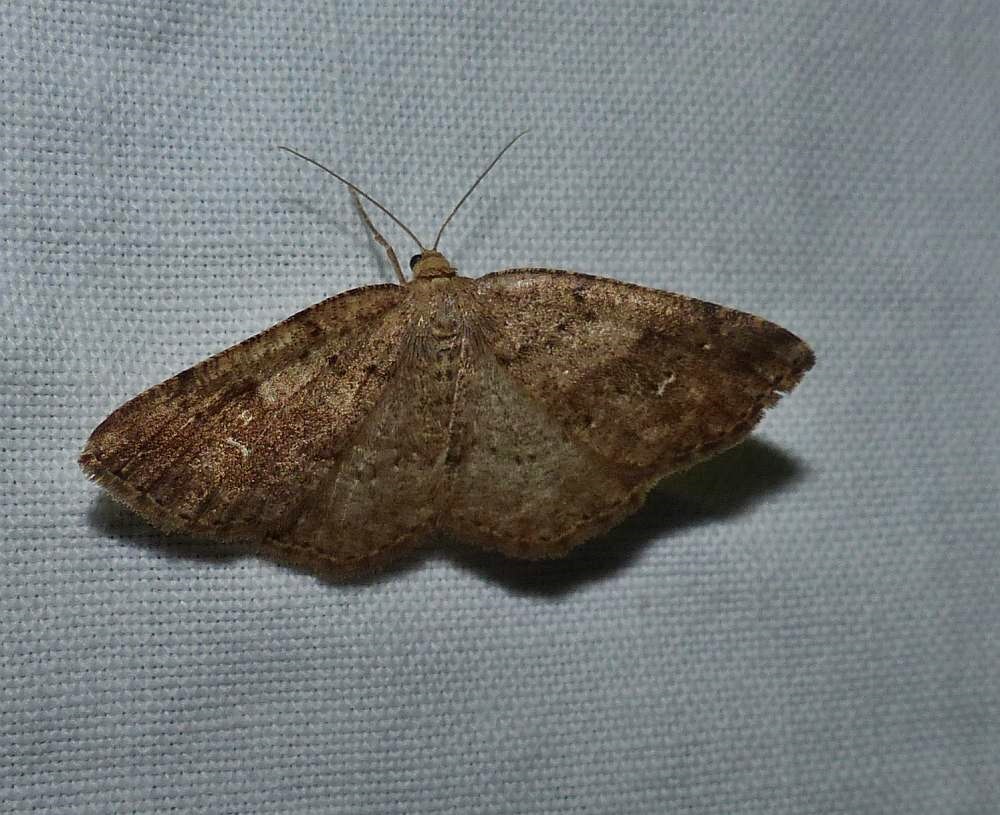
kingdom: Animalia
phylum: Arthropoda
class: Insecta
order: Lepidoptera
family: Geometridae
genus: Homochlodes
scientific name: Homochlodes fritillaria
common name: Pale homochlodes
